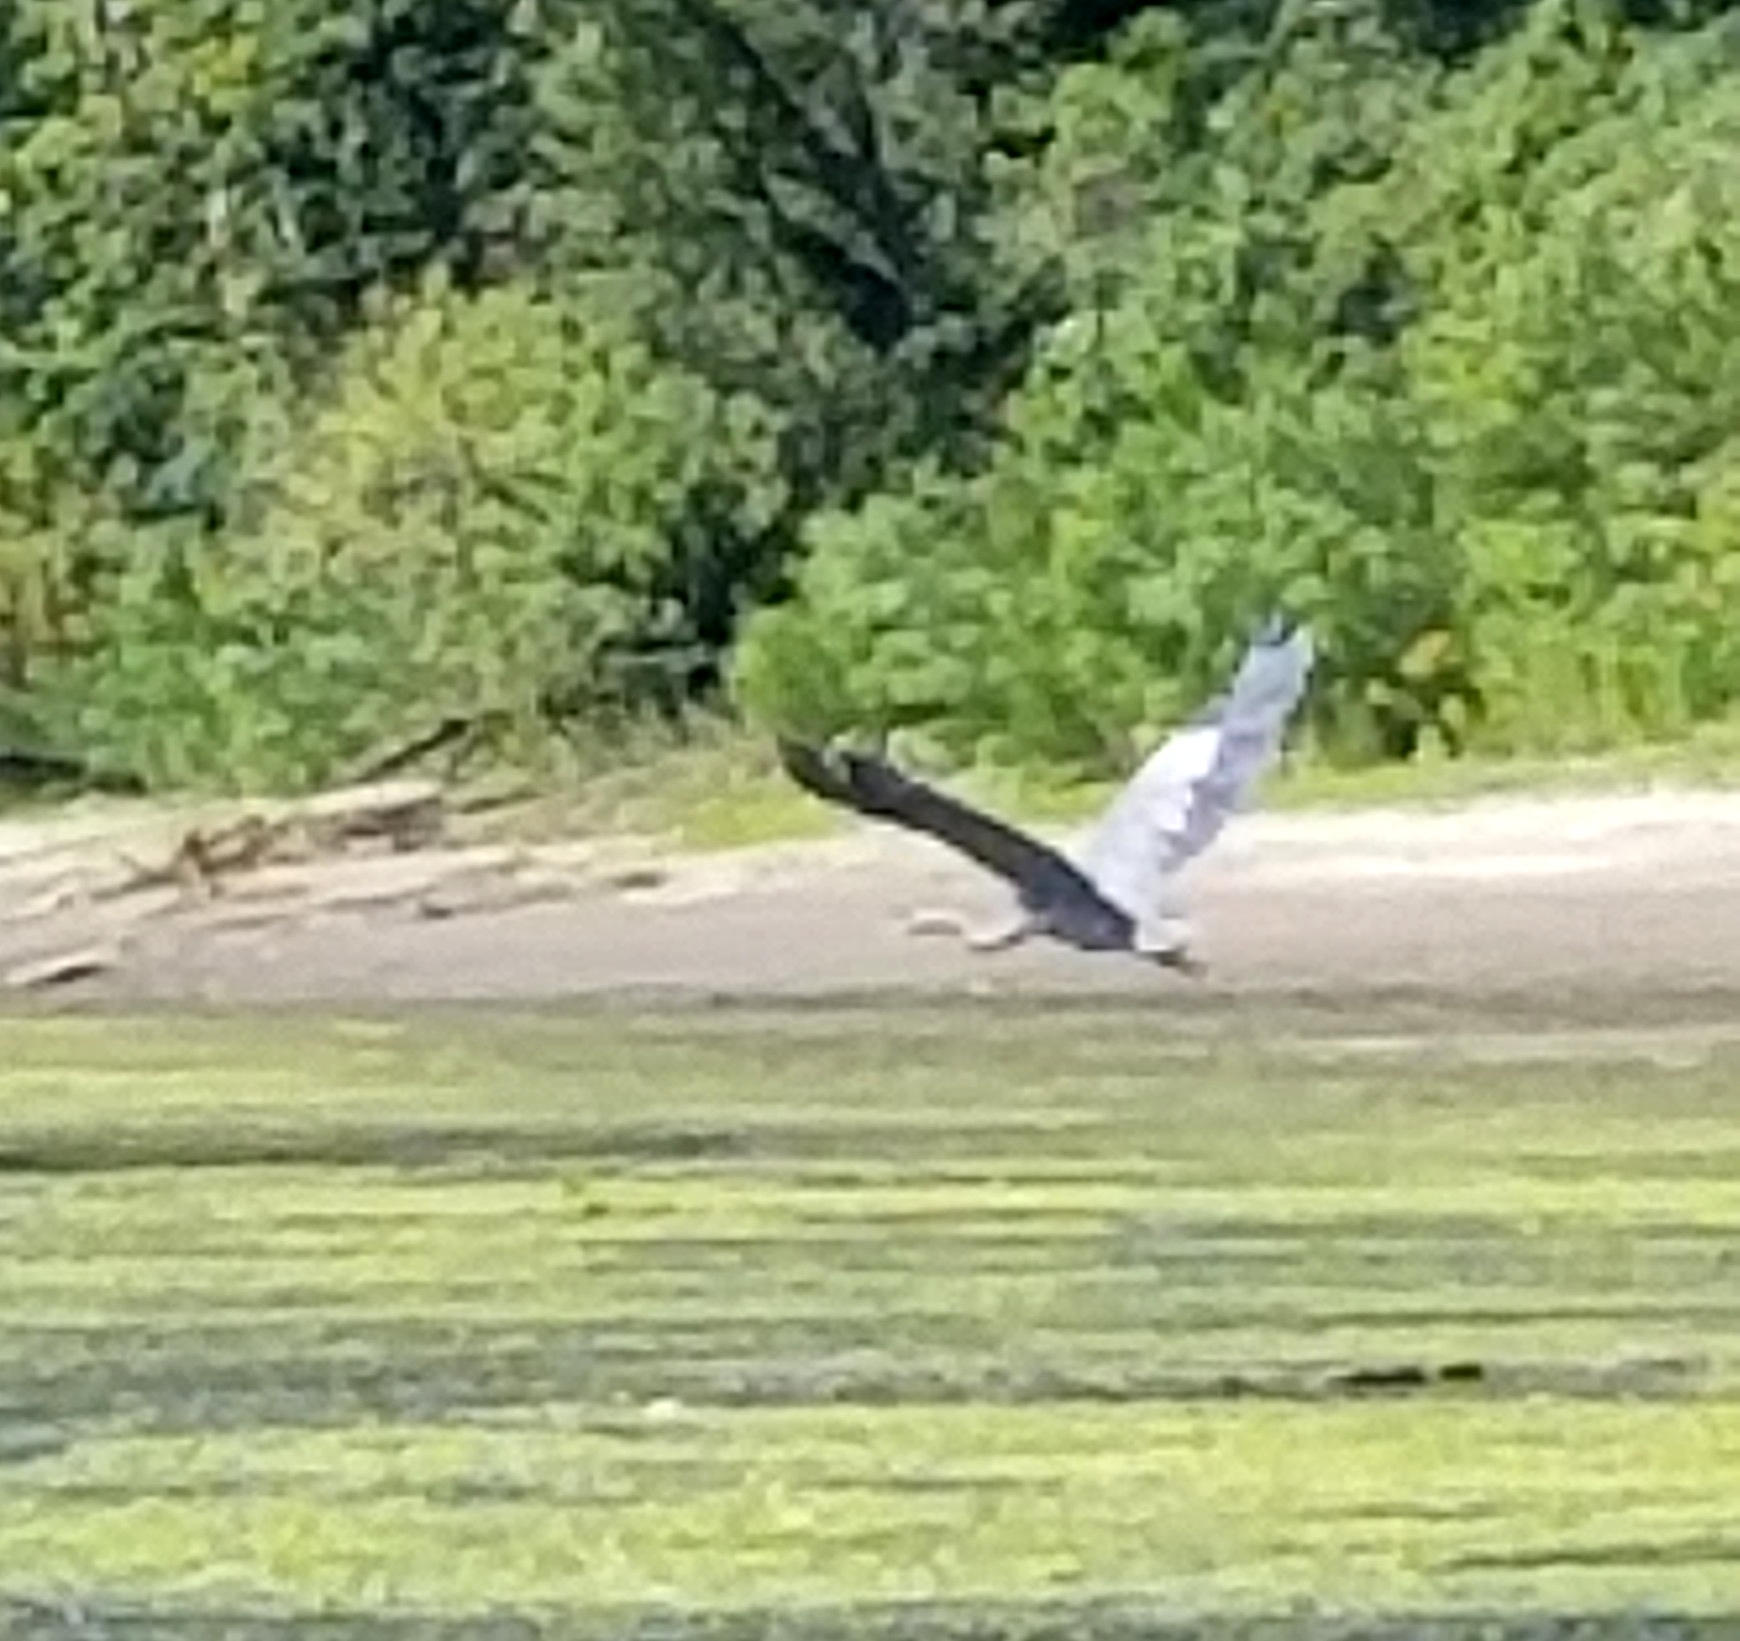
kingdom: Animalia
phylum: Chordata
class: Aves
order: Pelecaniformes
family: Ardeidae
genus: Ardea
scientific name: Ardea herodias
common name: Great blue heron
